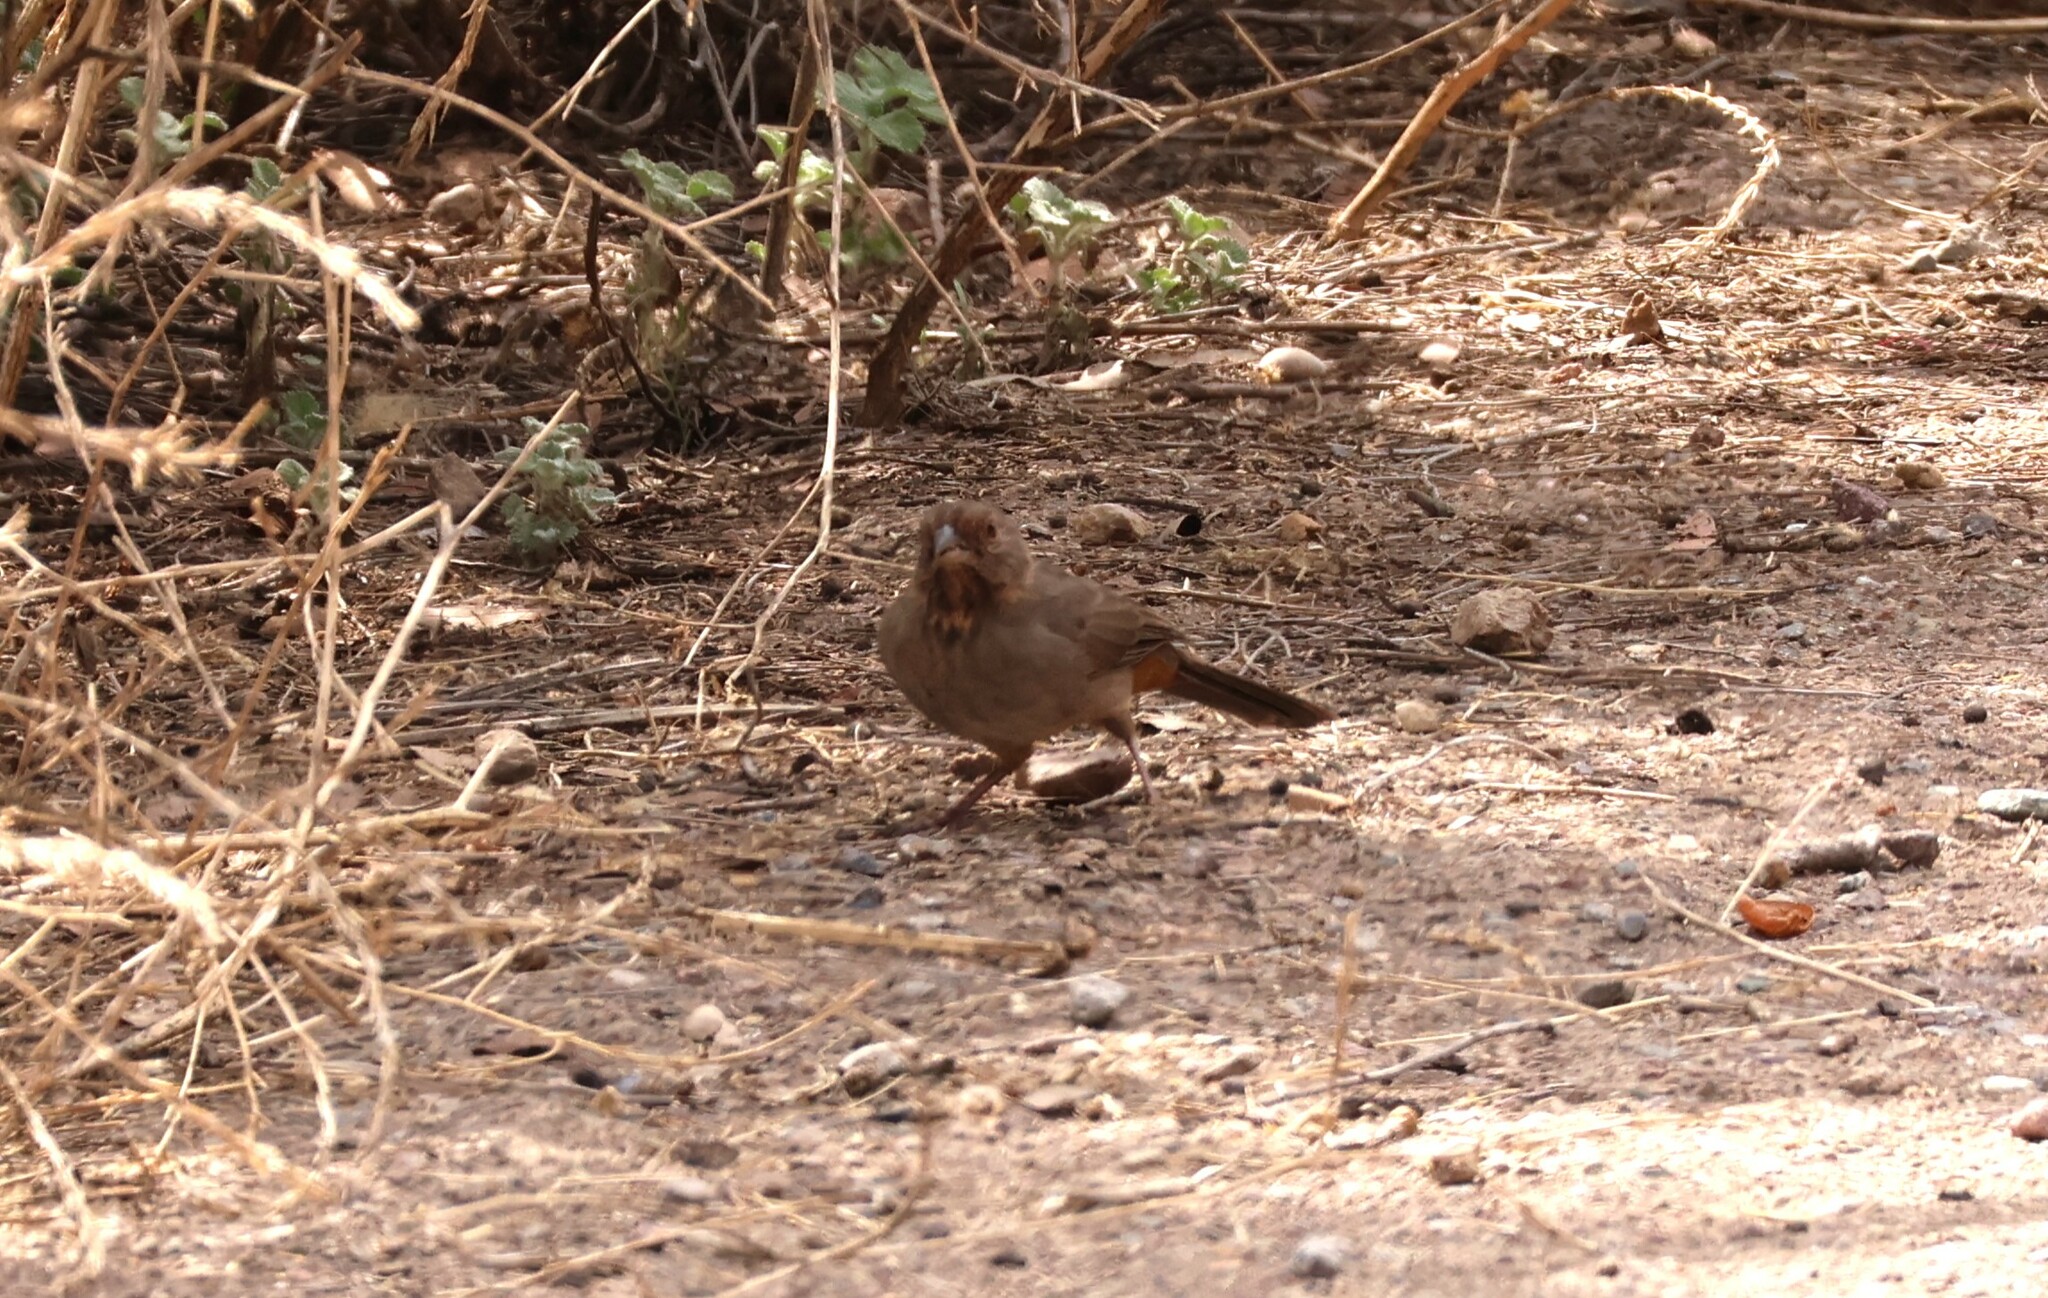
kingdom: Animalia
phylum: Chordata
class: Aves
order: Passeriformes
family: Passerellidae
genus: Melozone
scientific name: Melozone crissalis
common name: California towhee
